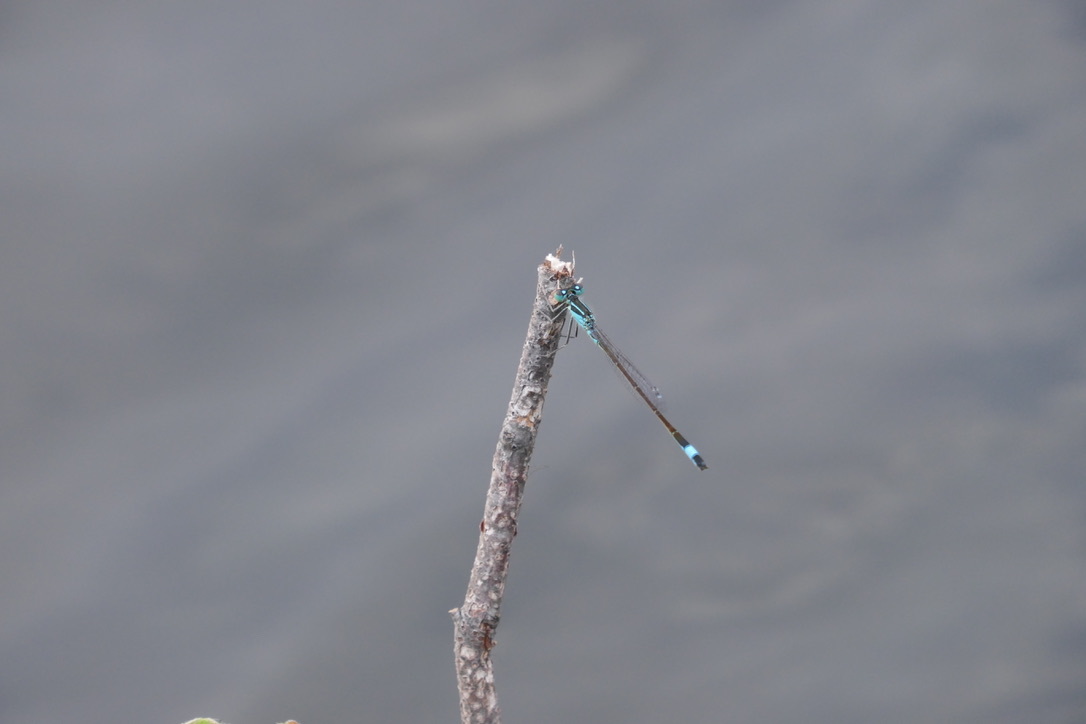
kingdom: Animalia
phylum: Arthropoda
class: Insecta
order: Odonata
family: Coenagrionidae
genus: Ischnura
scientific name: Ischnura elegans
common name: Blue-tailed damselfly
